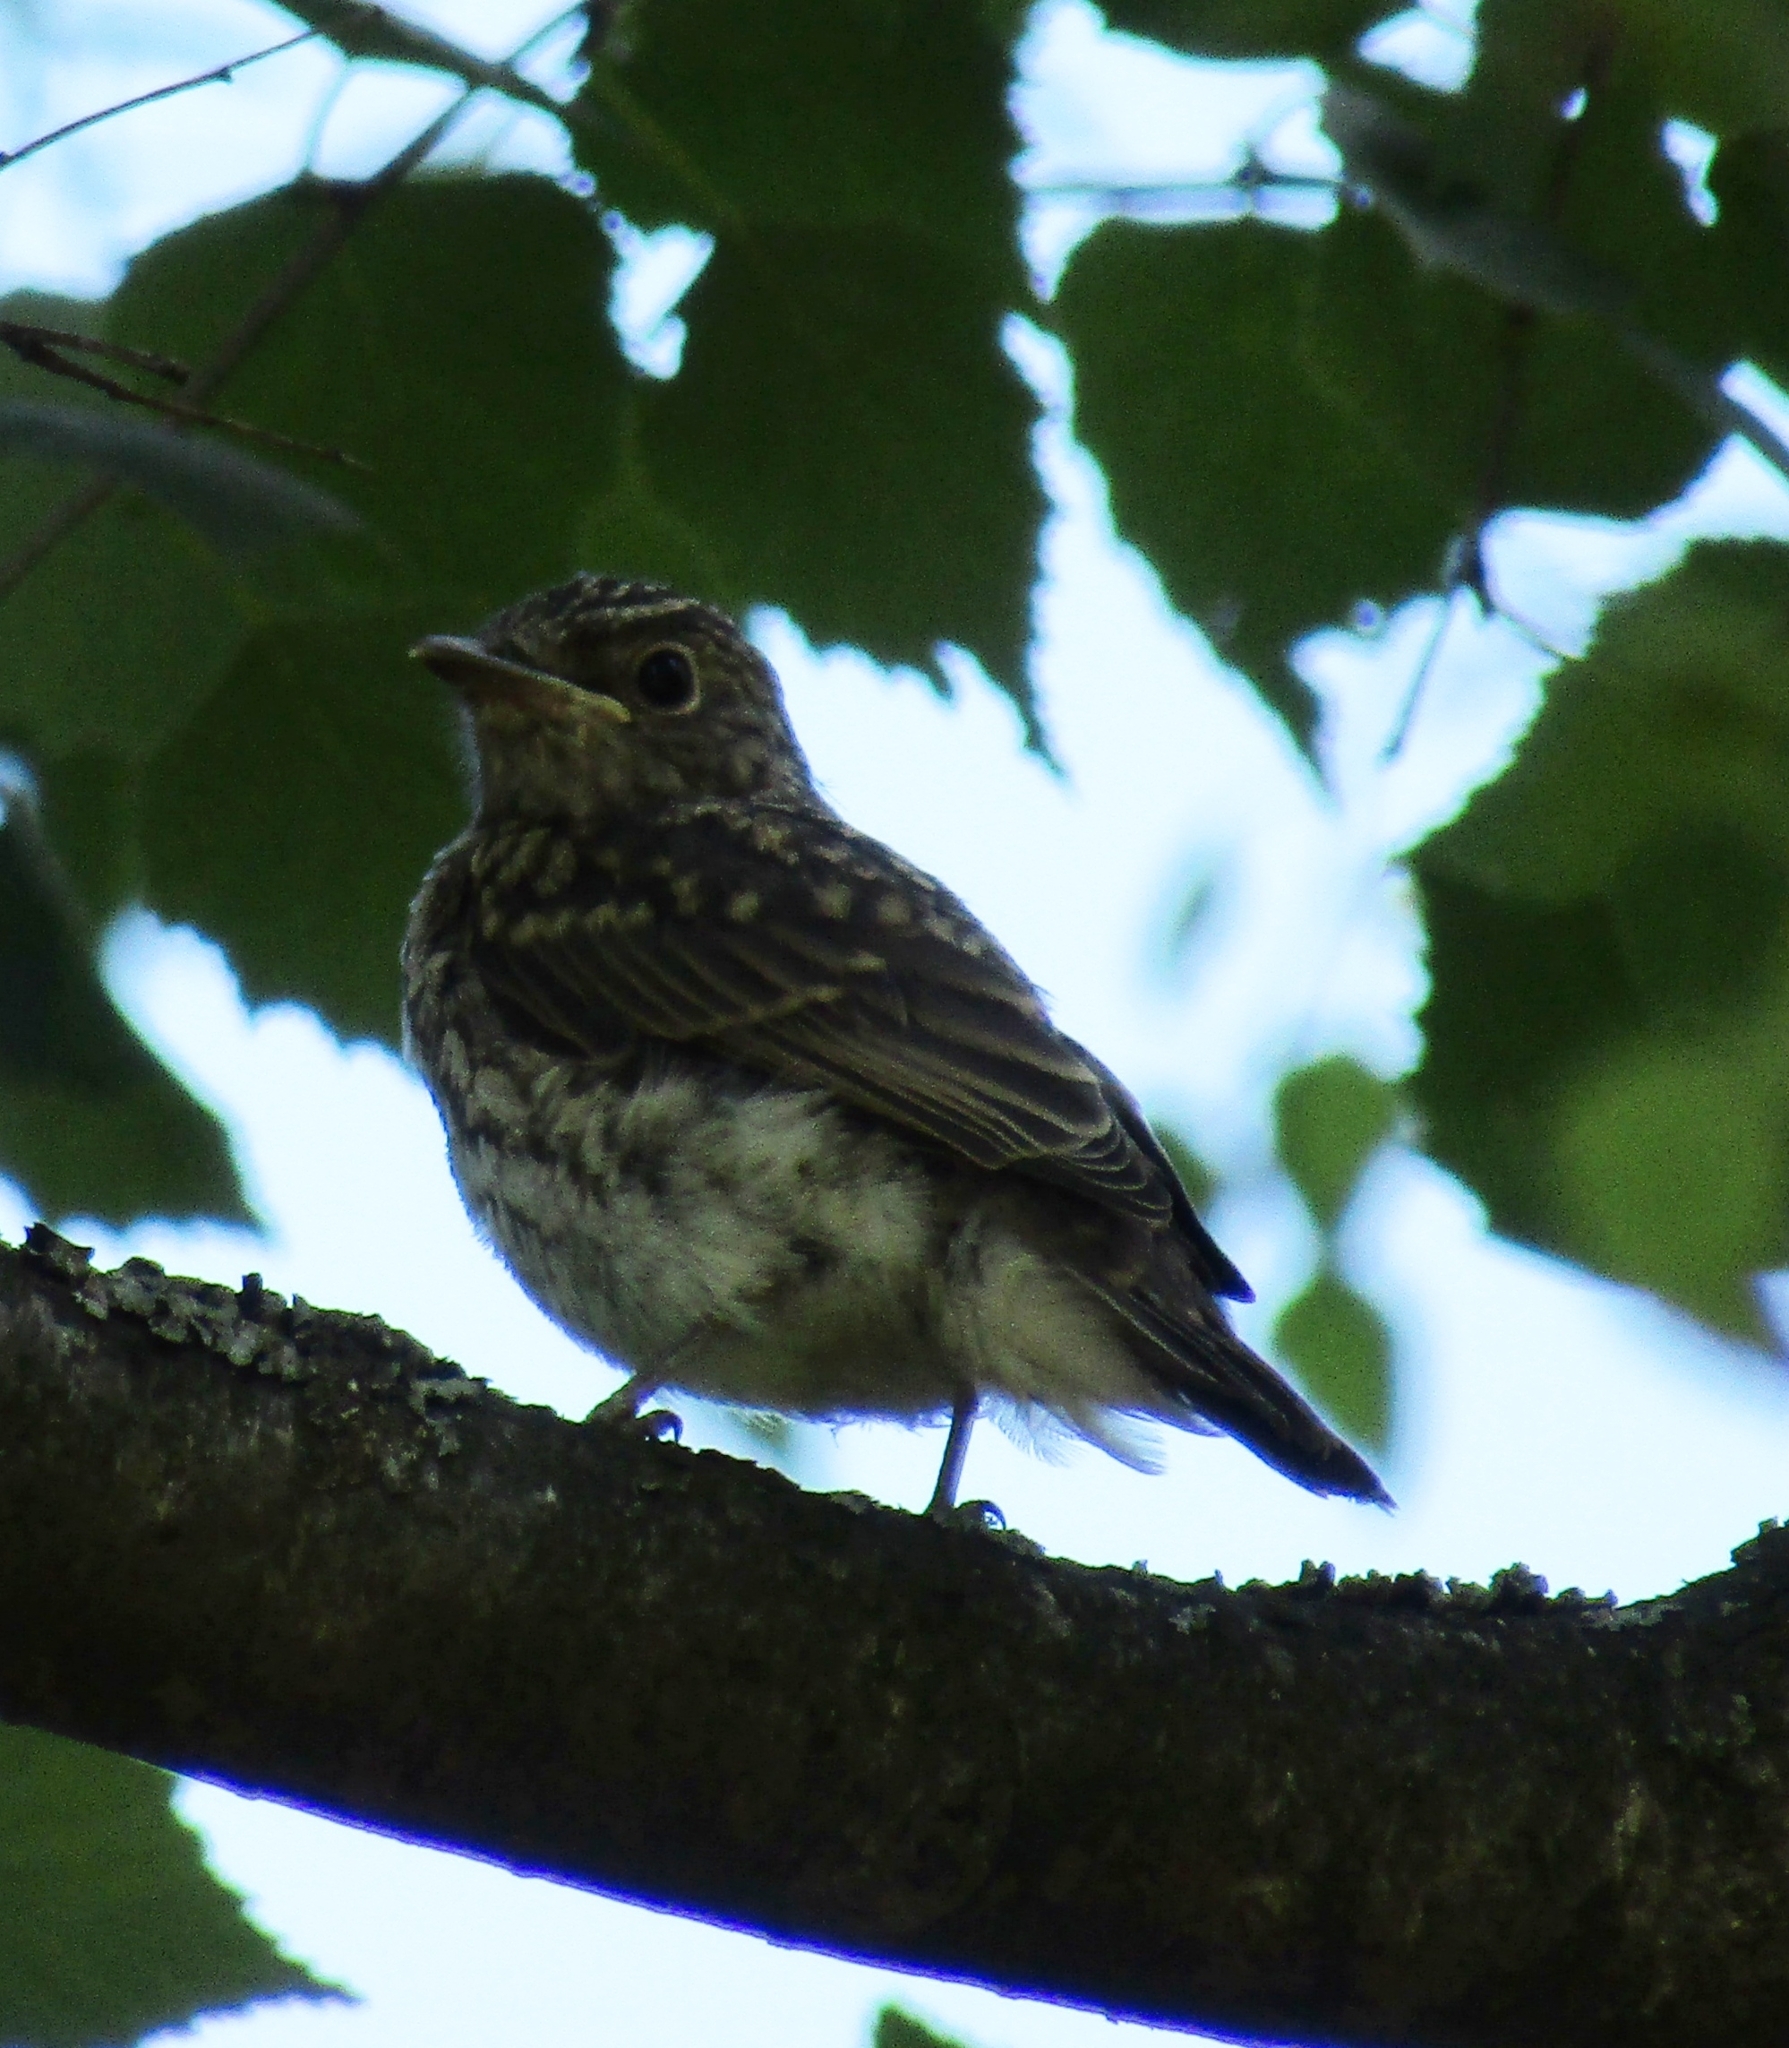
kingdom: Animalia
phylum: Chordata
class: Aves
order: Passeriformes
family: Muscicapidae
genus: Muscicapa
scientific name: Muscicapa striata
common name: Spotted flycatcher
